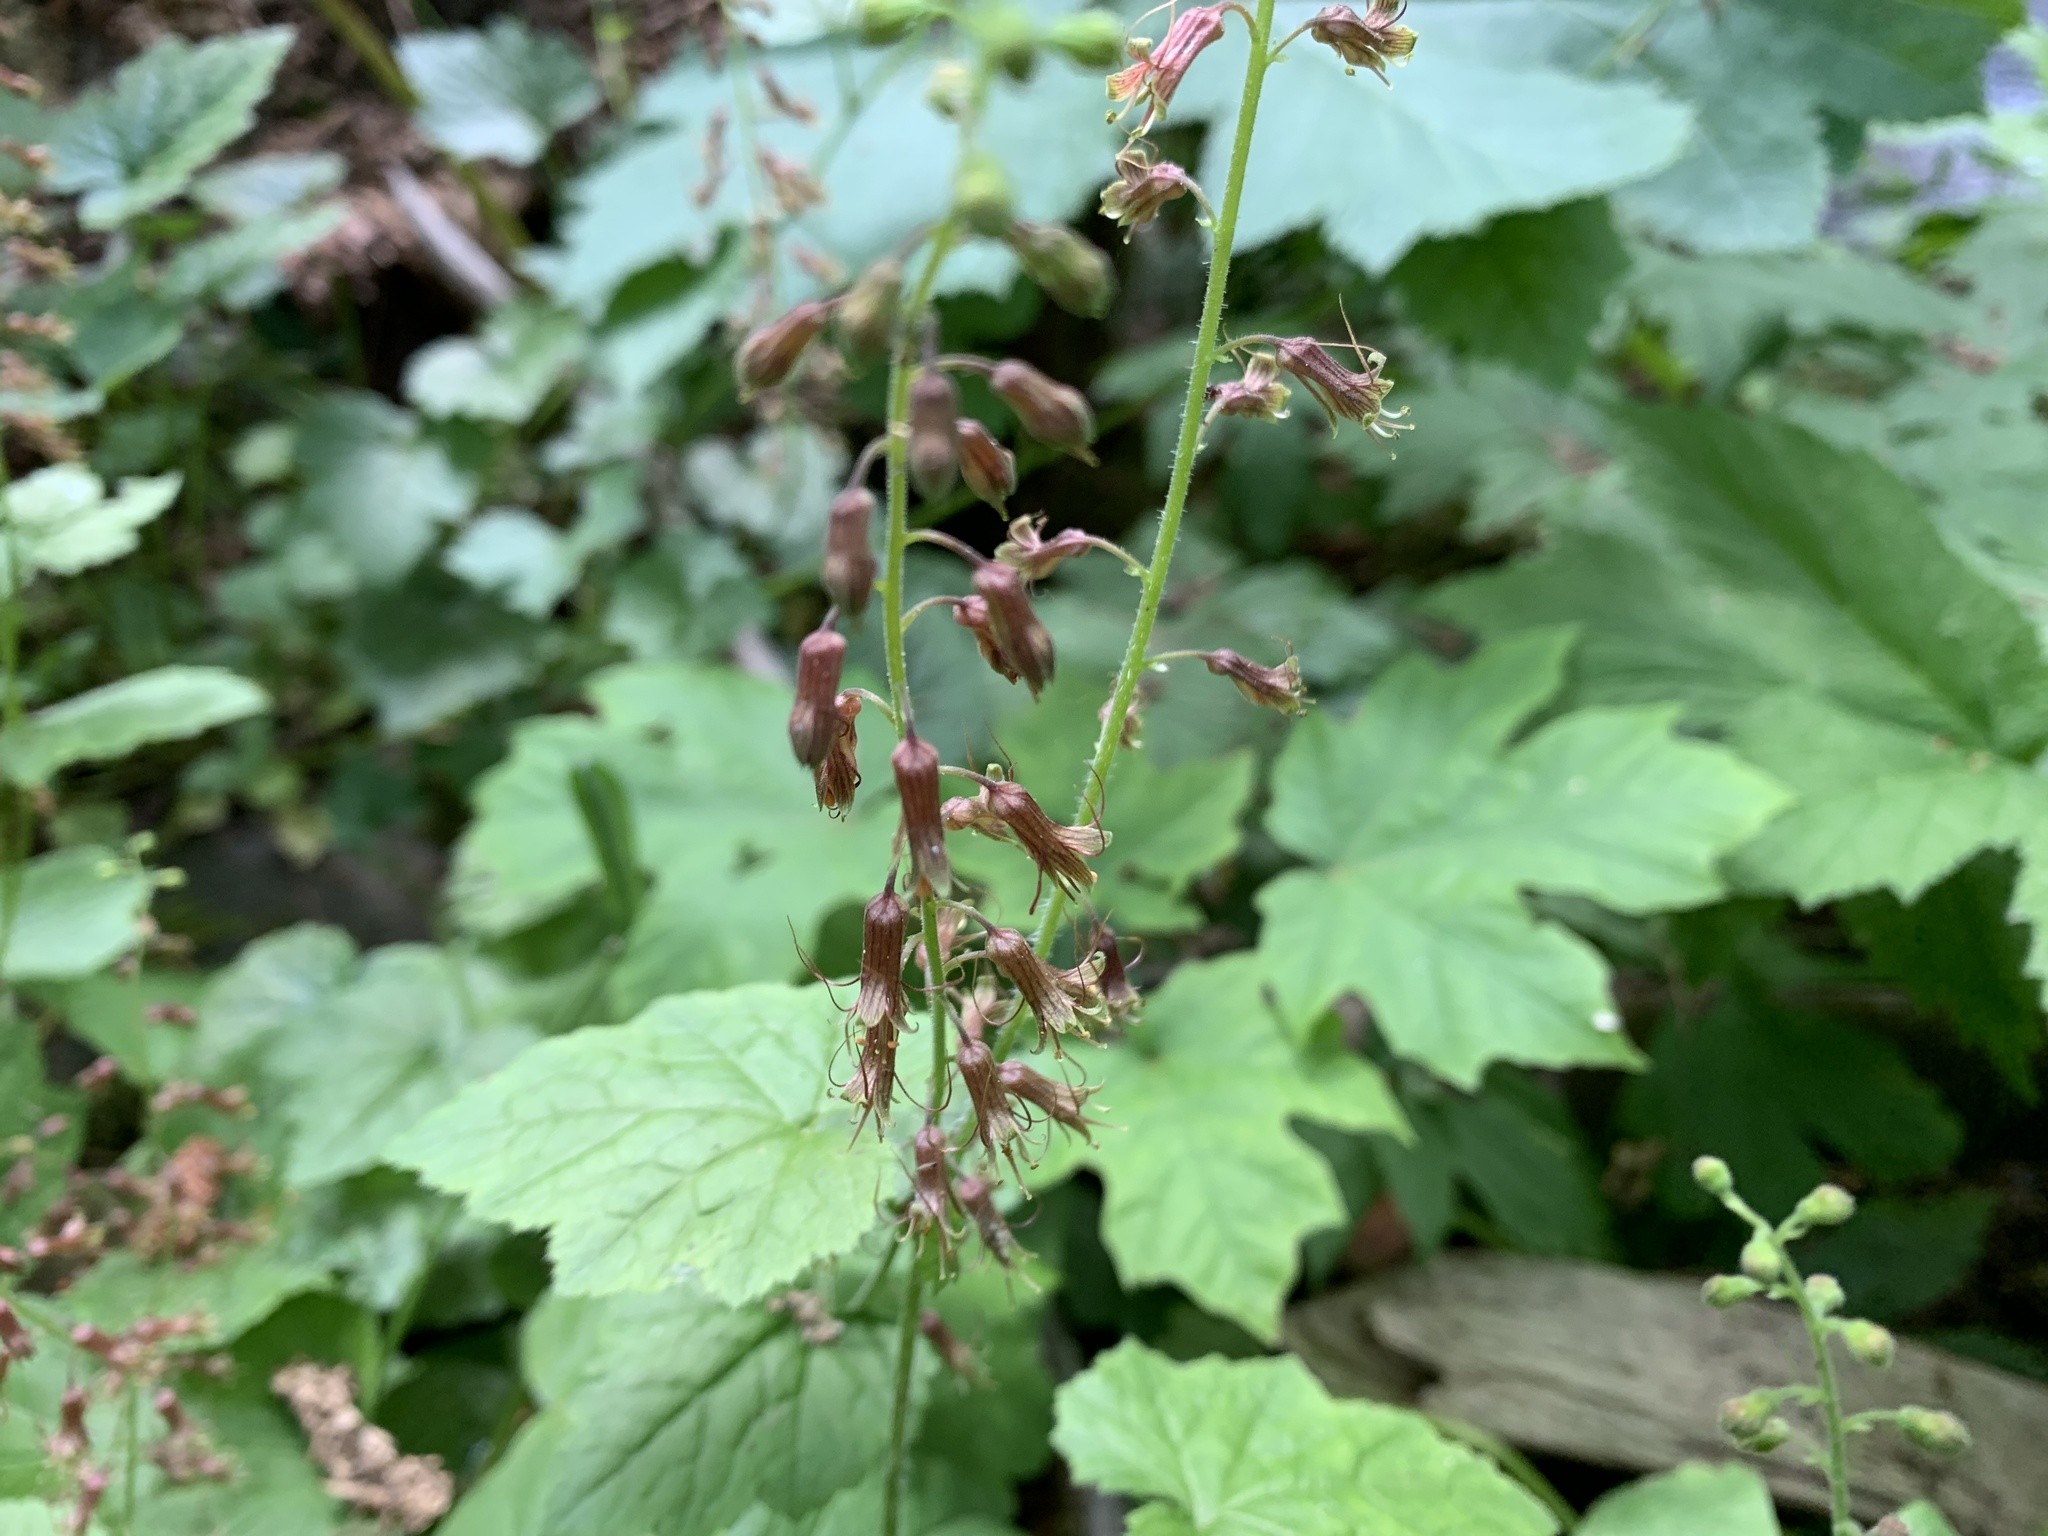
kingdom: Plantae
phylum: Tracheophyta
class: Magnoliopsida
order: Saxifragales
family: Saxifragaceae
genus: Tolmiea
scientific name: Tolmiea menziesii
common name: Pick-a-back-plant
